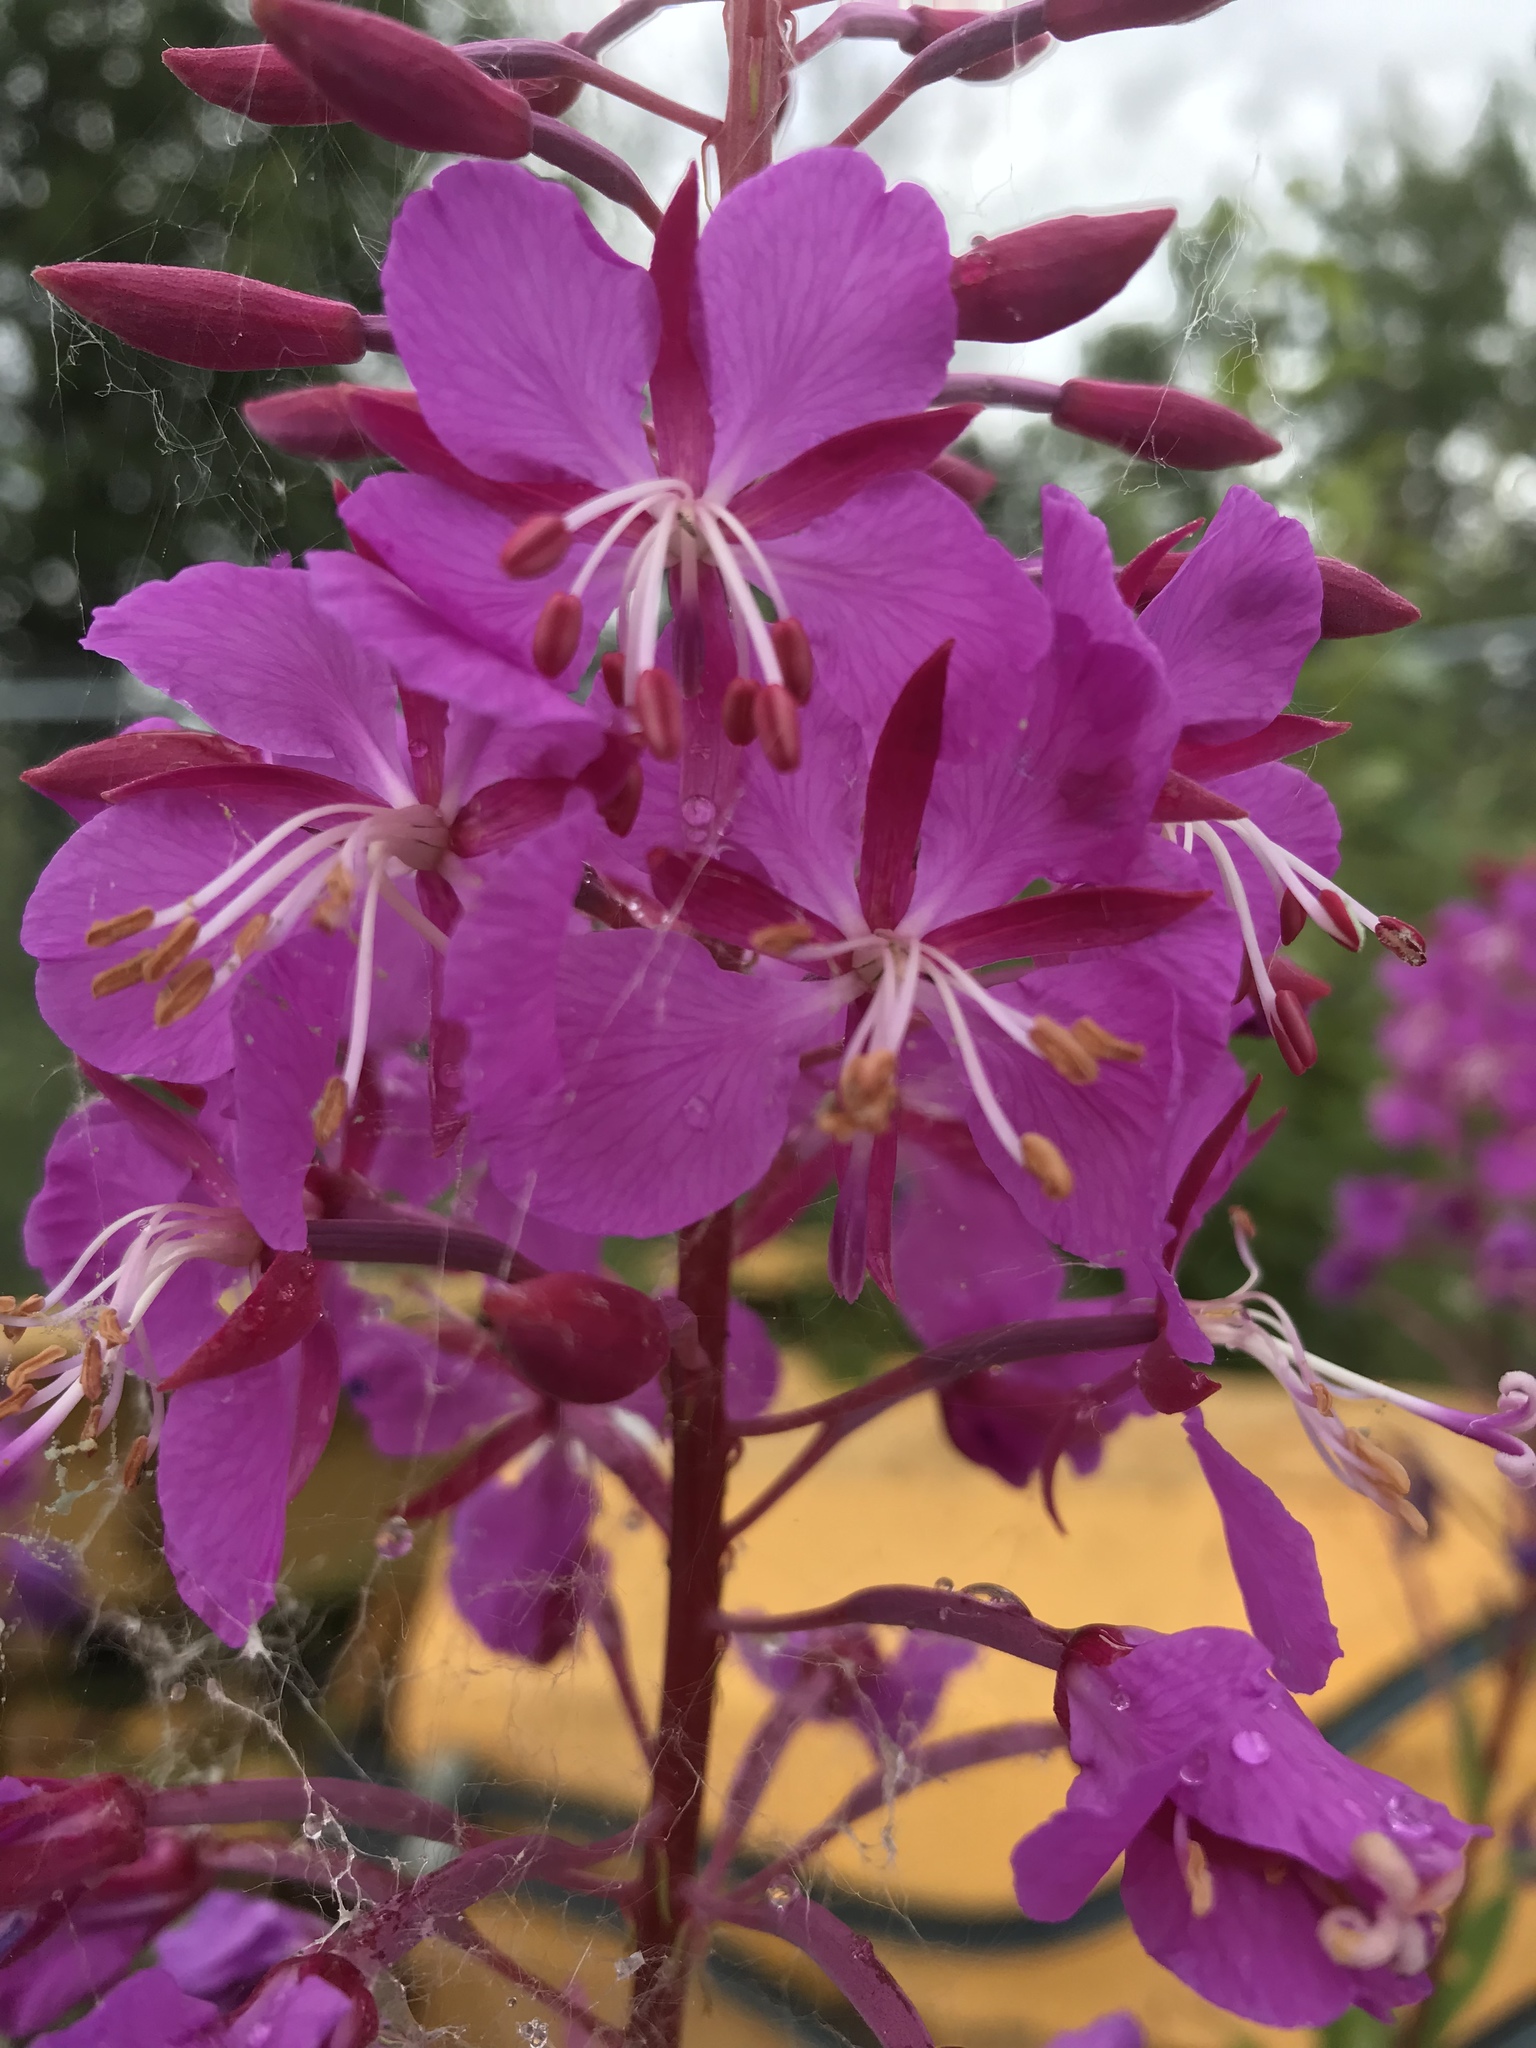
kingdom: Plantae
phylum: Tracheophyta
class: Magnoliopsida
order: Myrtales
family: Onagraceae
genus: Chamaenerion
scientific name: Chamaenerion angustifolium
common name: Fireweed
